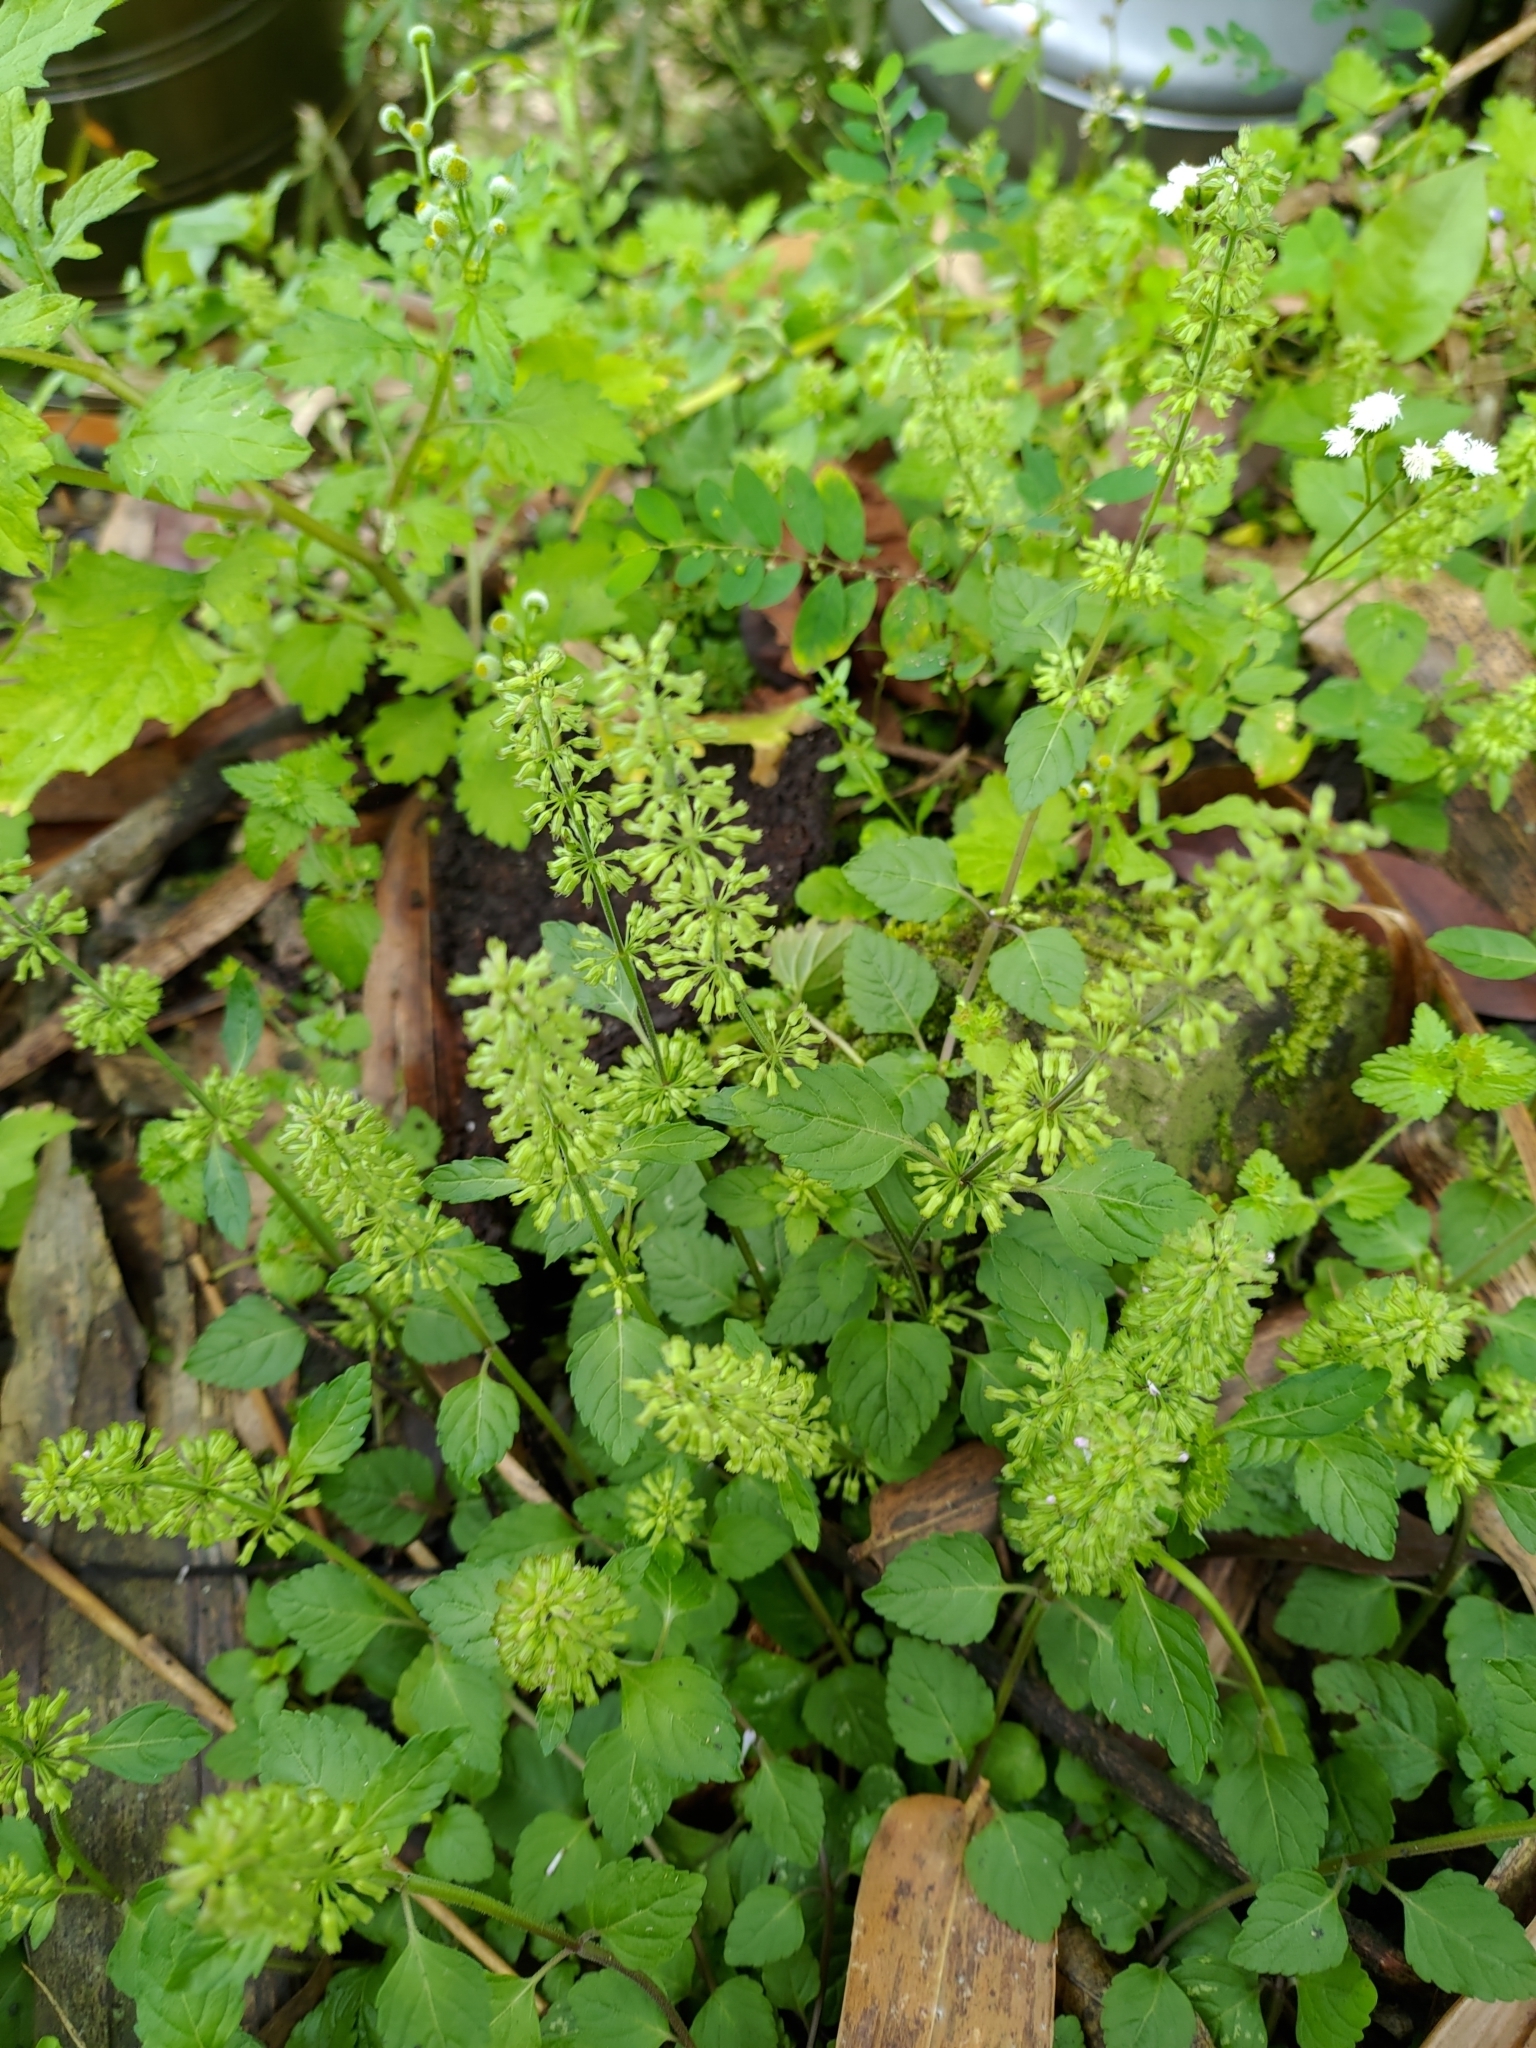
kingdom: Plantae
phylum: Tracheophyta
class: Magnoliopsida
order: Lamiales
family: Lamiaceae
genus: Clinopodium
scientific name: Clinopodium gracile
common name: Slender wild basil
